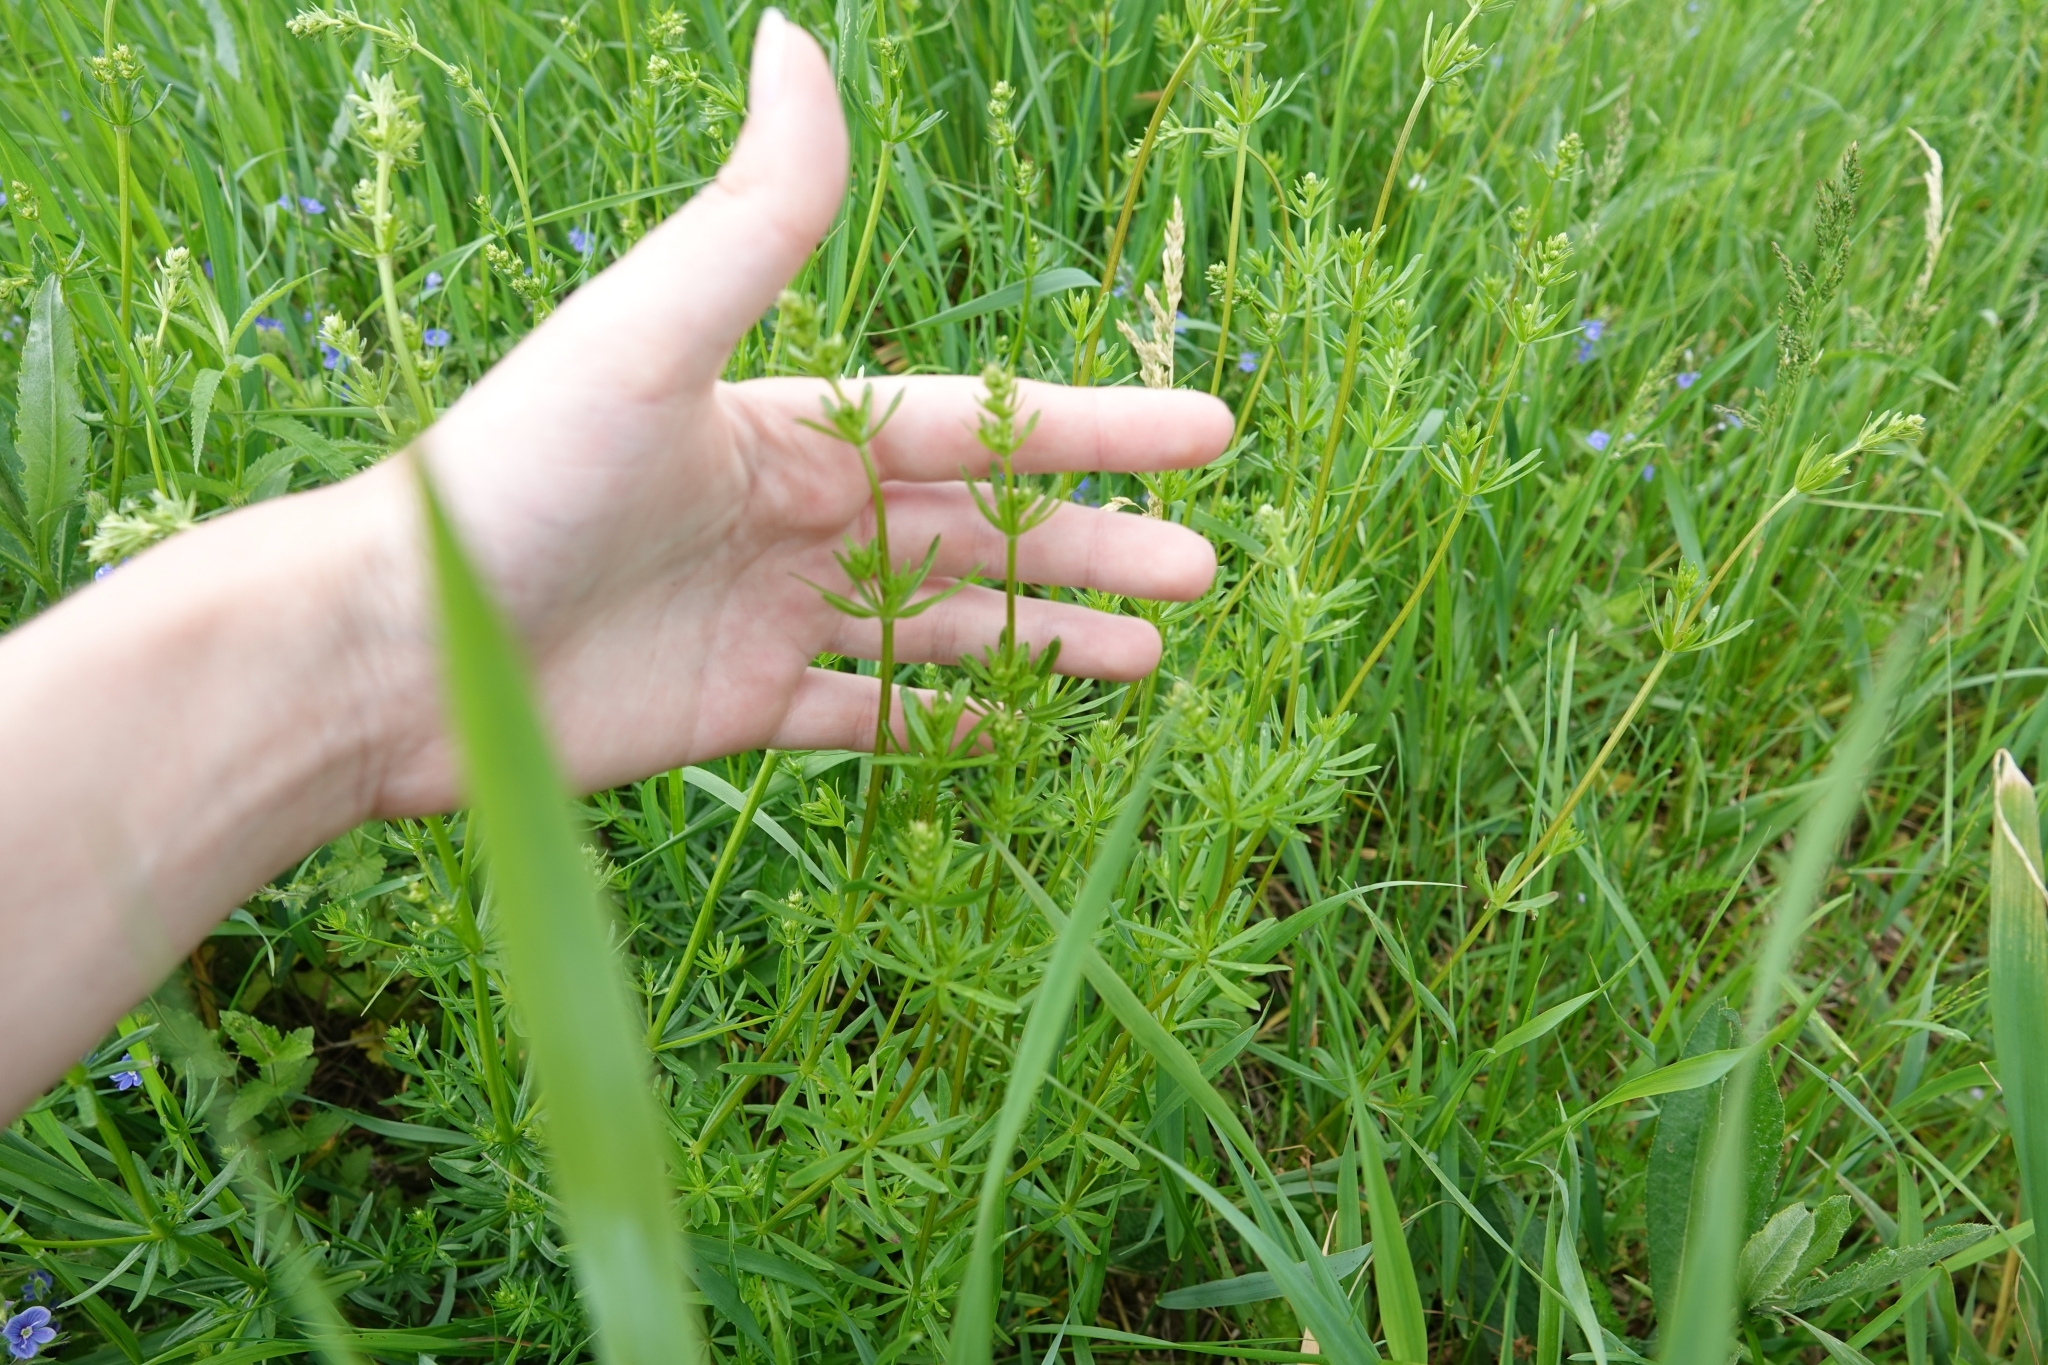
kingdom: Plantae
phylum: Tracheophyta
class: Magnoliopsida
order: Gentianales
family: Rubiaceae
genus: Galium
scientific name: Galium mollugo
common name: Hedge bedstraw
